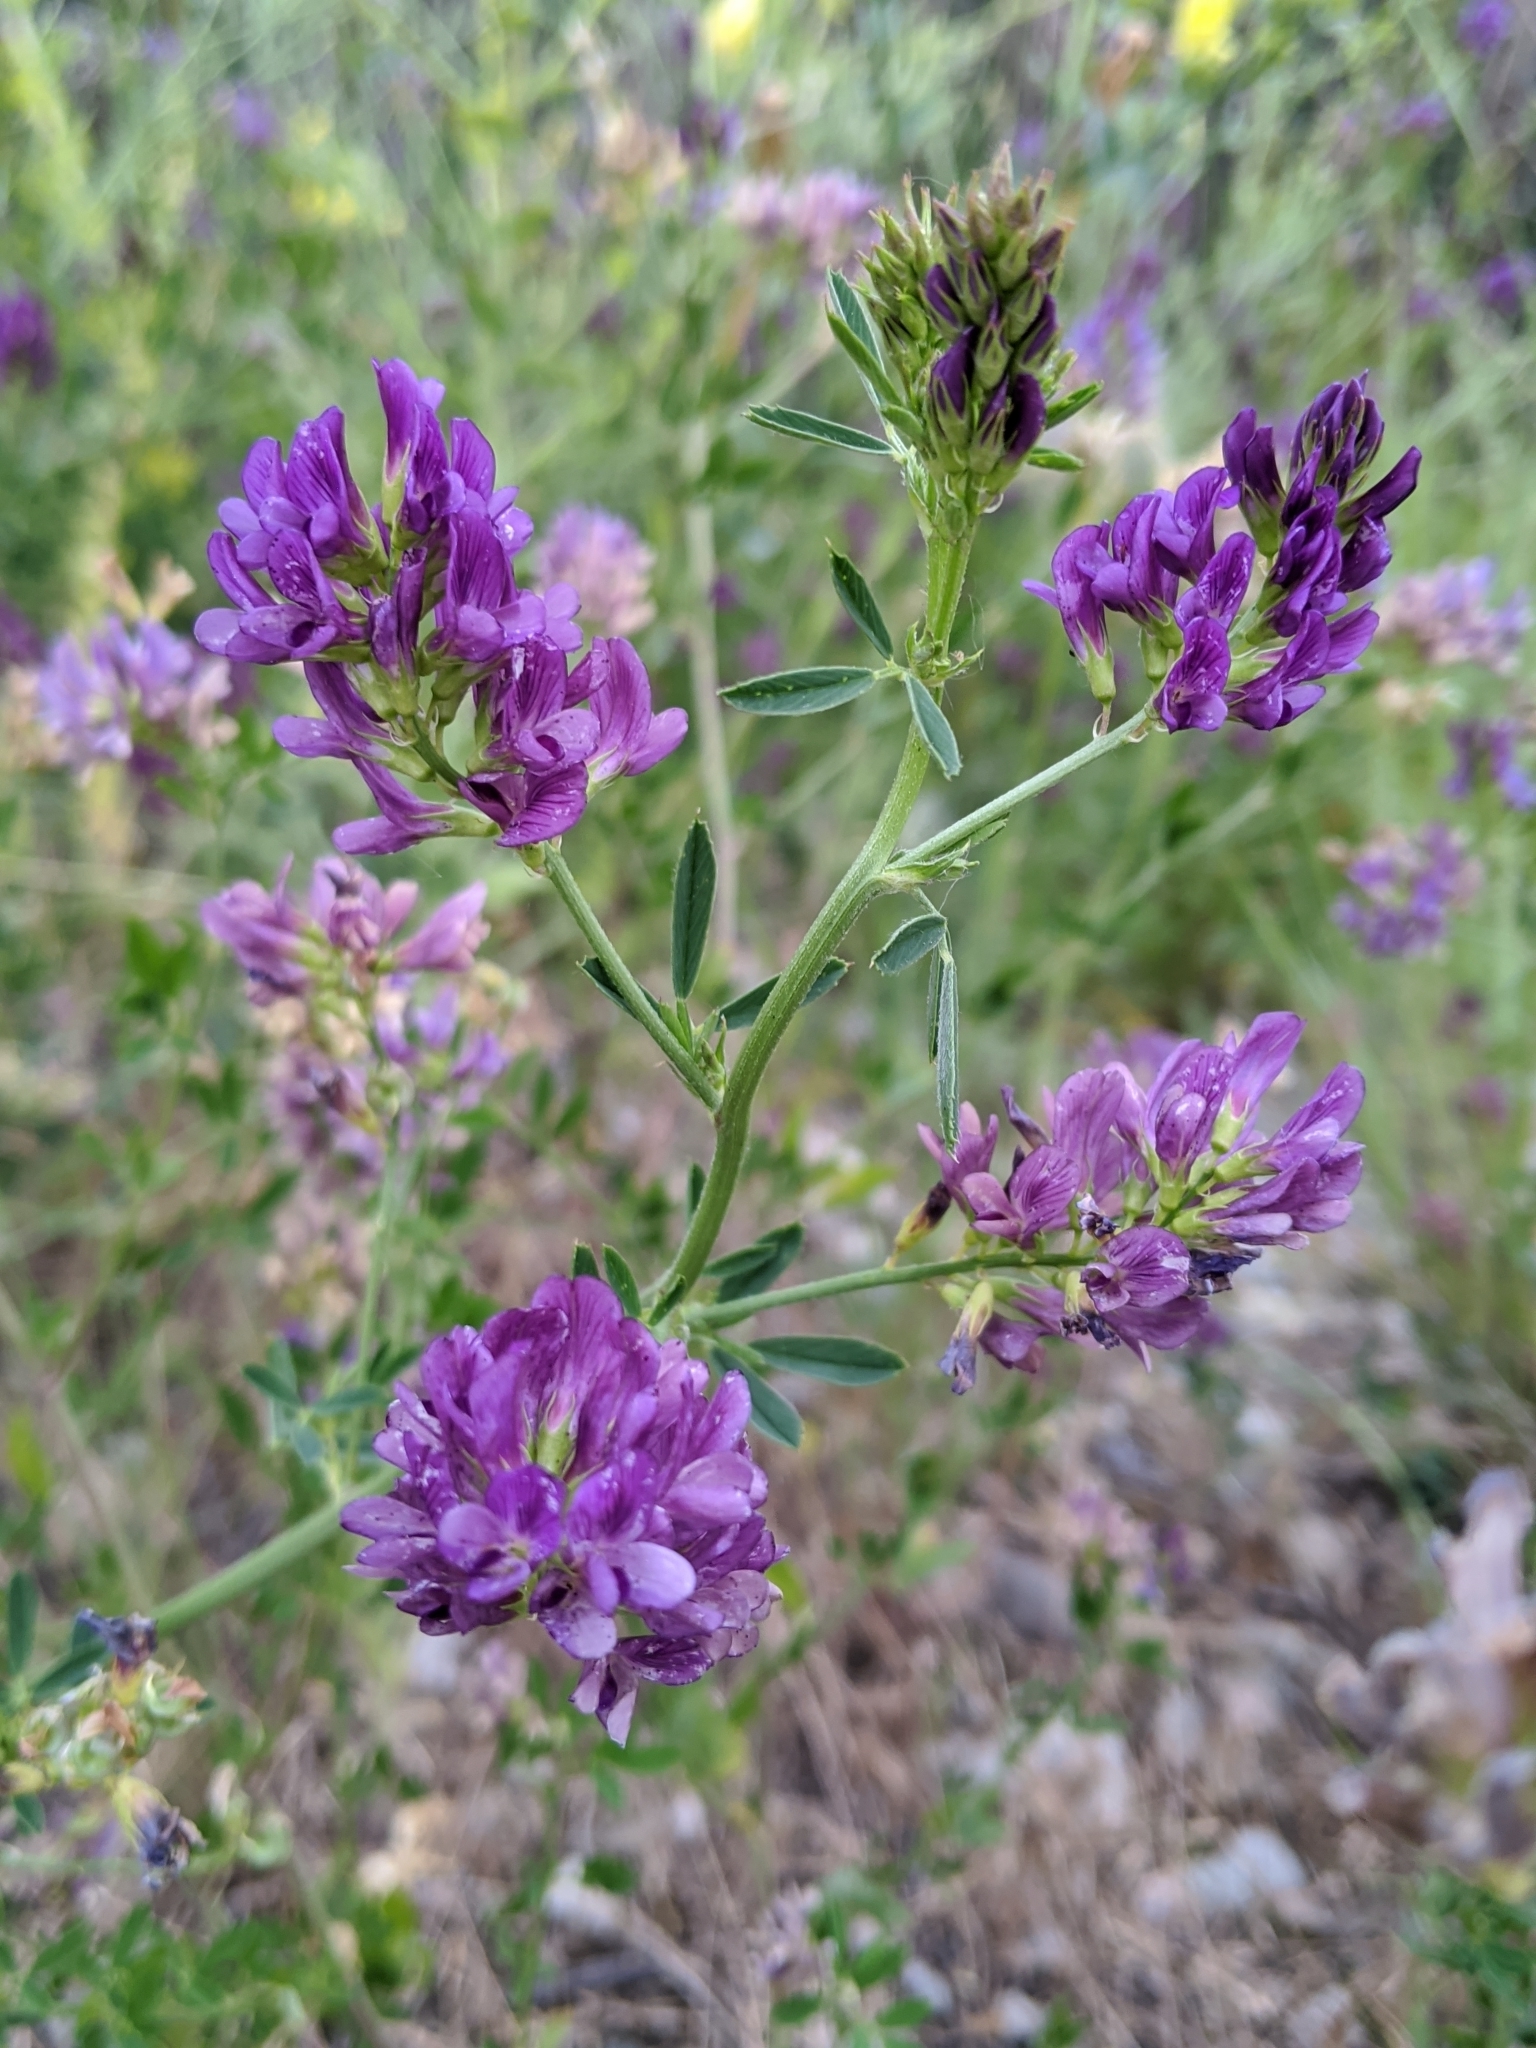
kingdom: Plantae
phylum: Tracheophyta
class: Magnoliopsida
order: Fabales
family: Fabaceae
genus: Medicago
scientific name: Medicago sativa
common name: Alfalfa
